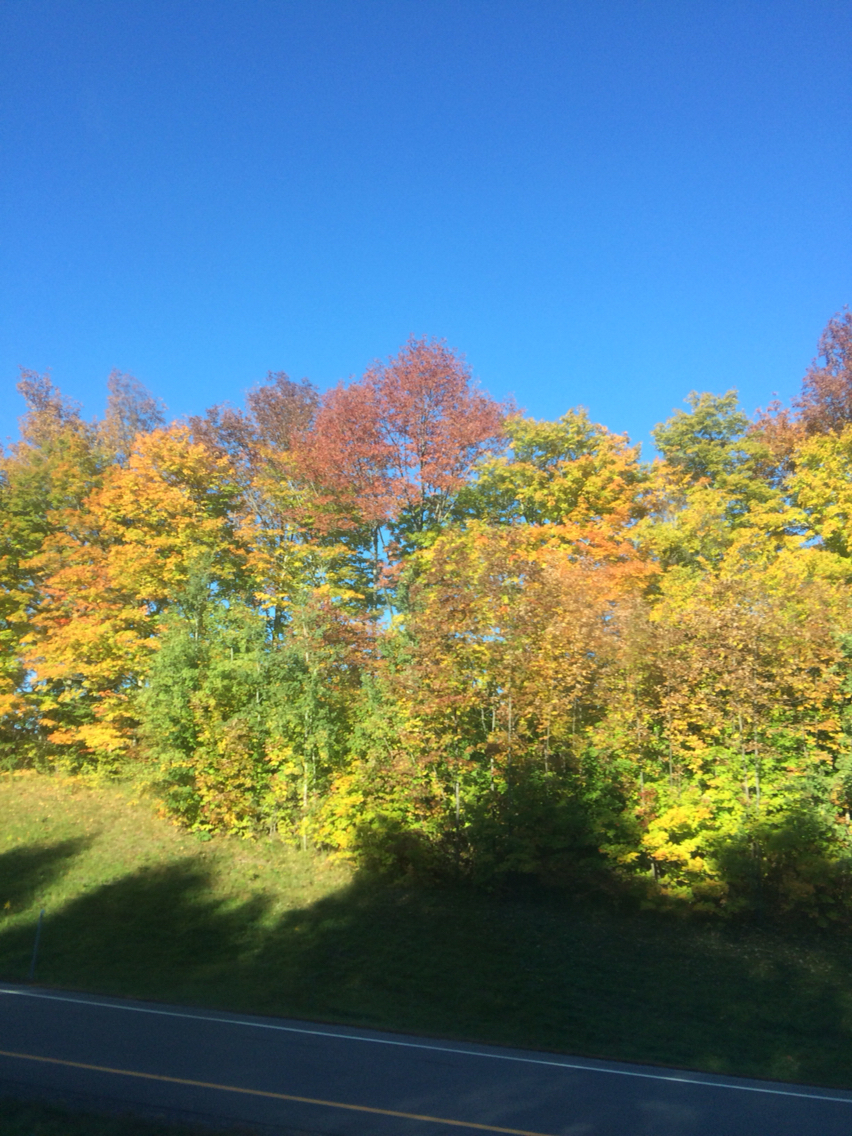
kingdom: Plantae
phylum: Tracheophyta
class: Magnoliopsida
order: Sapindales
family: Sapindaceae
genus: Acer
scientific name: Acer saccharum
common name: Sugar maple
